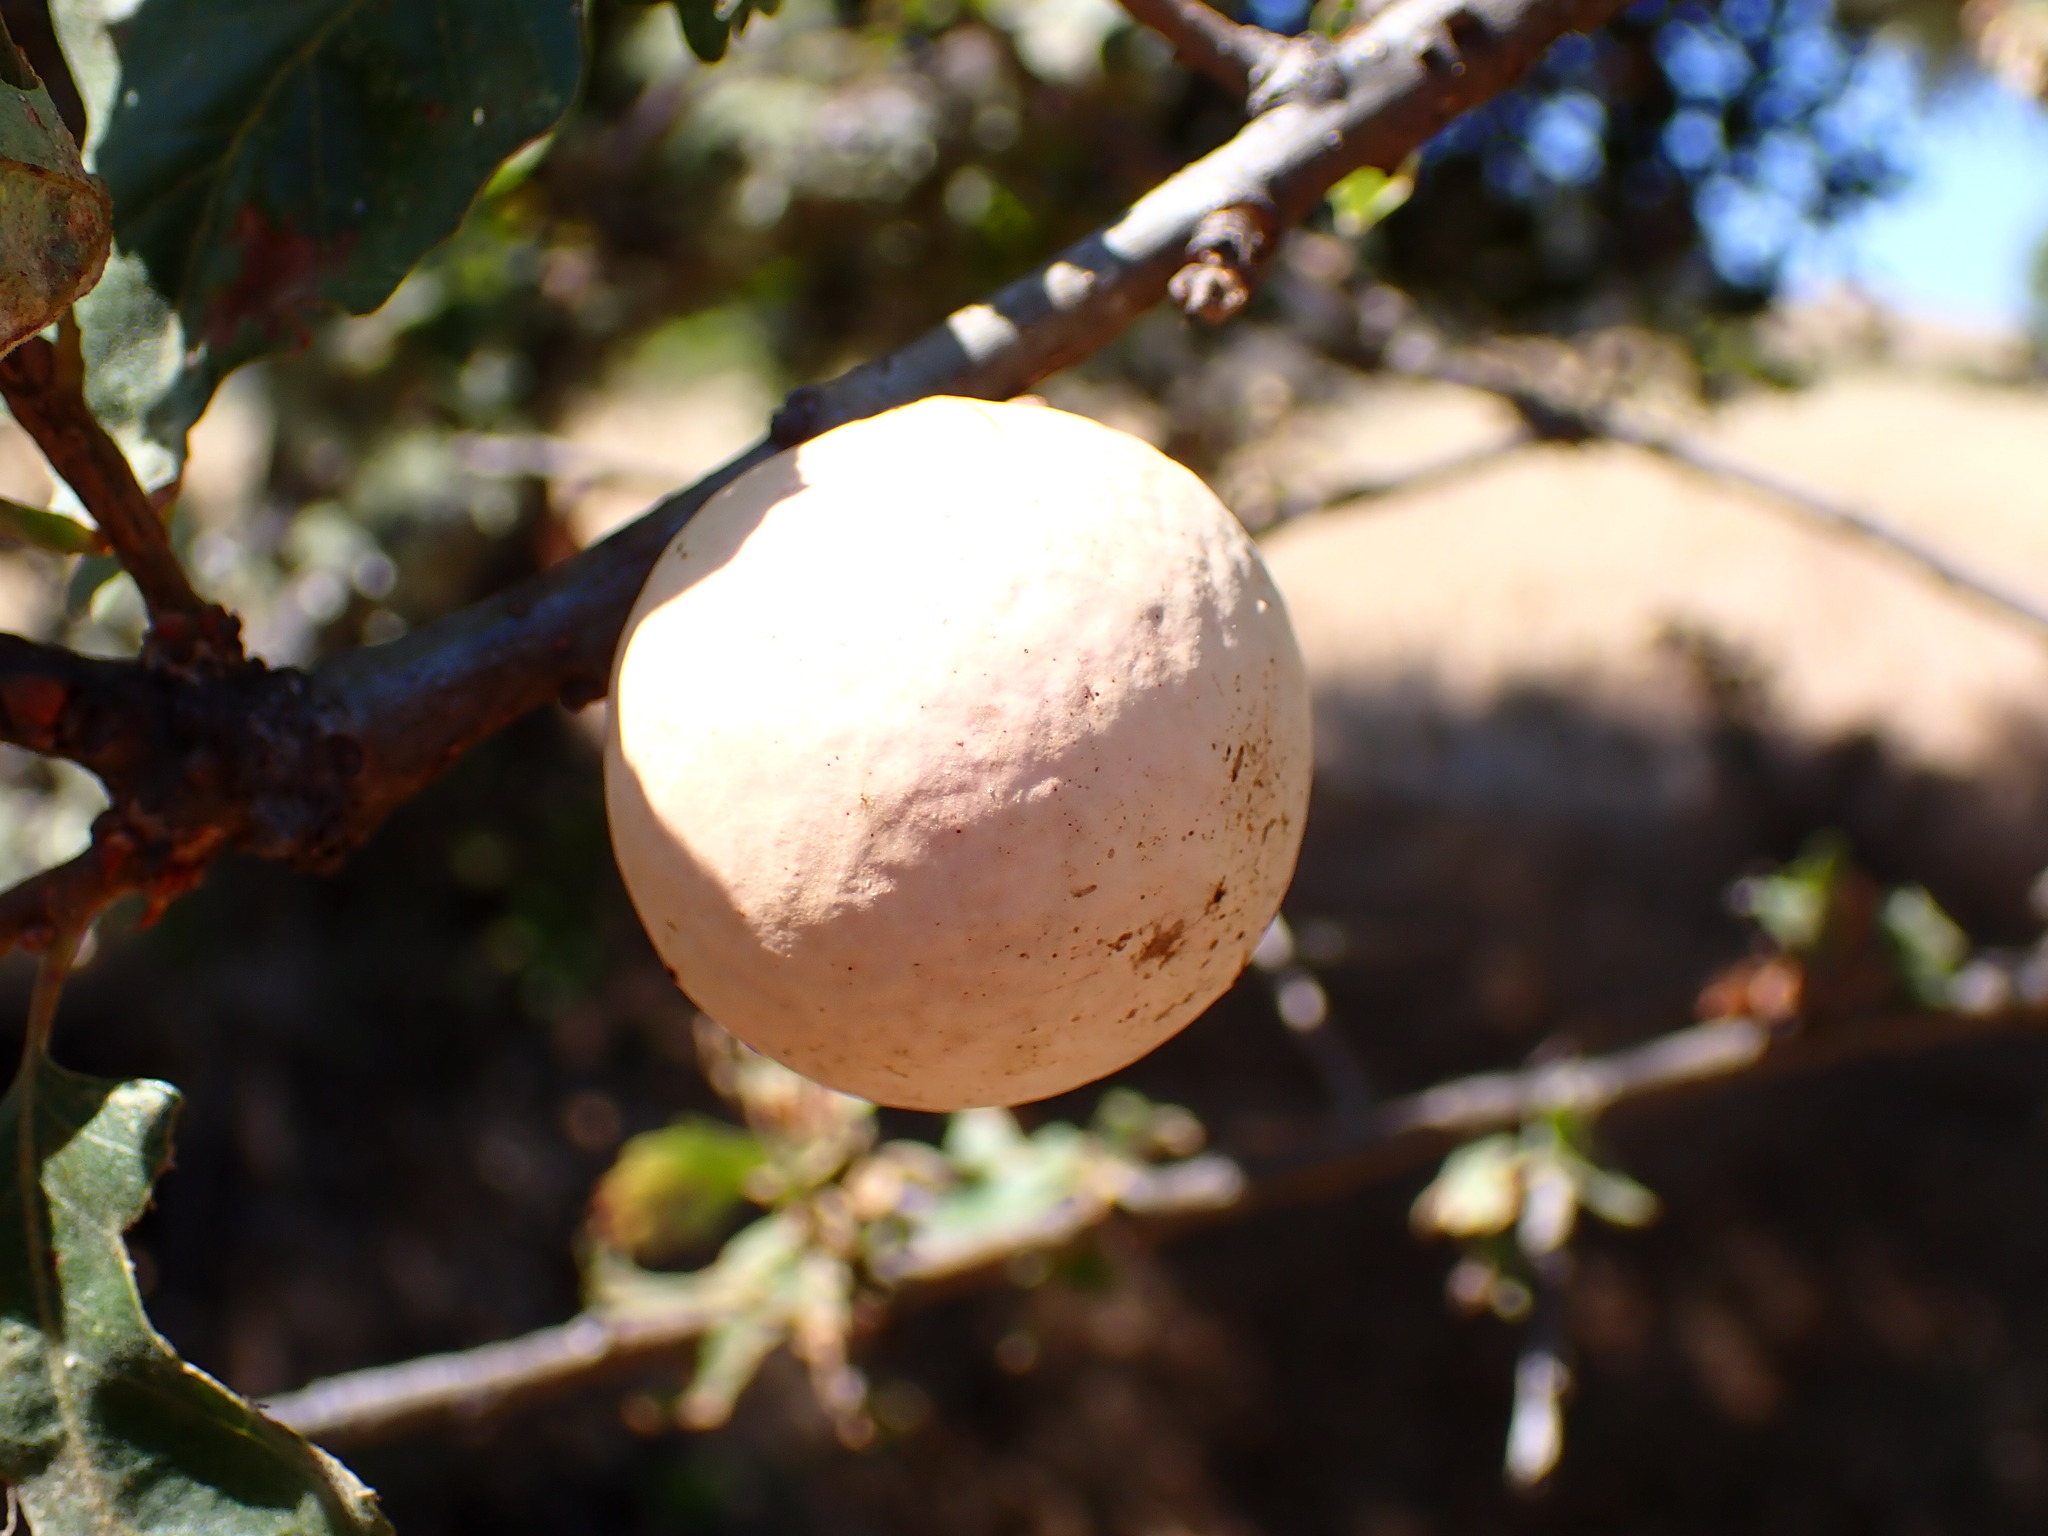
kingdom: Animalia
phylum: Arthropoda
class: Insecta
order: Hymenoptera
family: Cynipidae
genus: Andricus
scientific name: Andricus quercuscalifornicus
